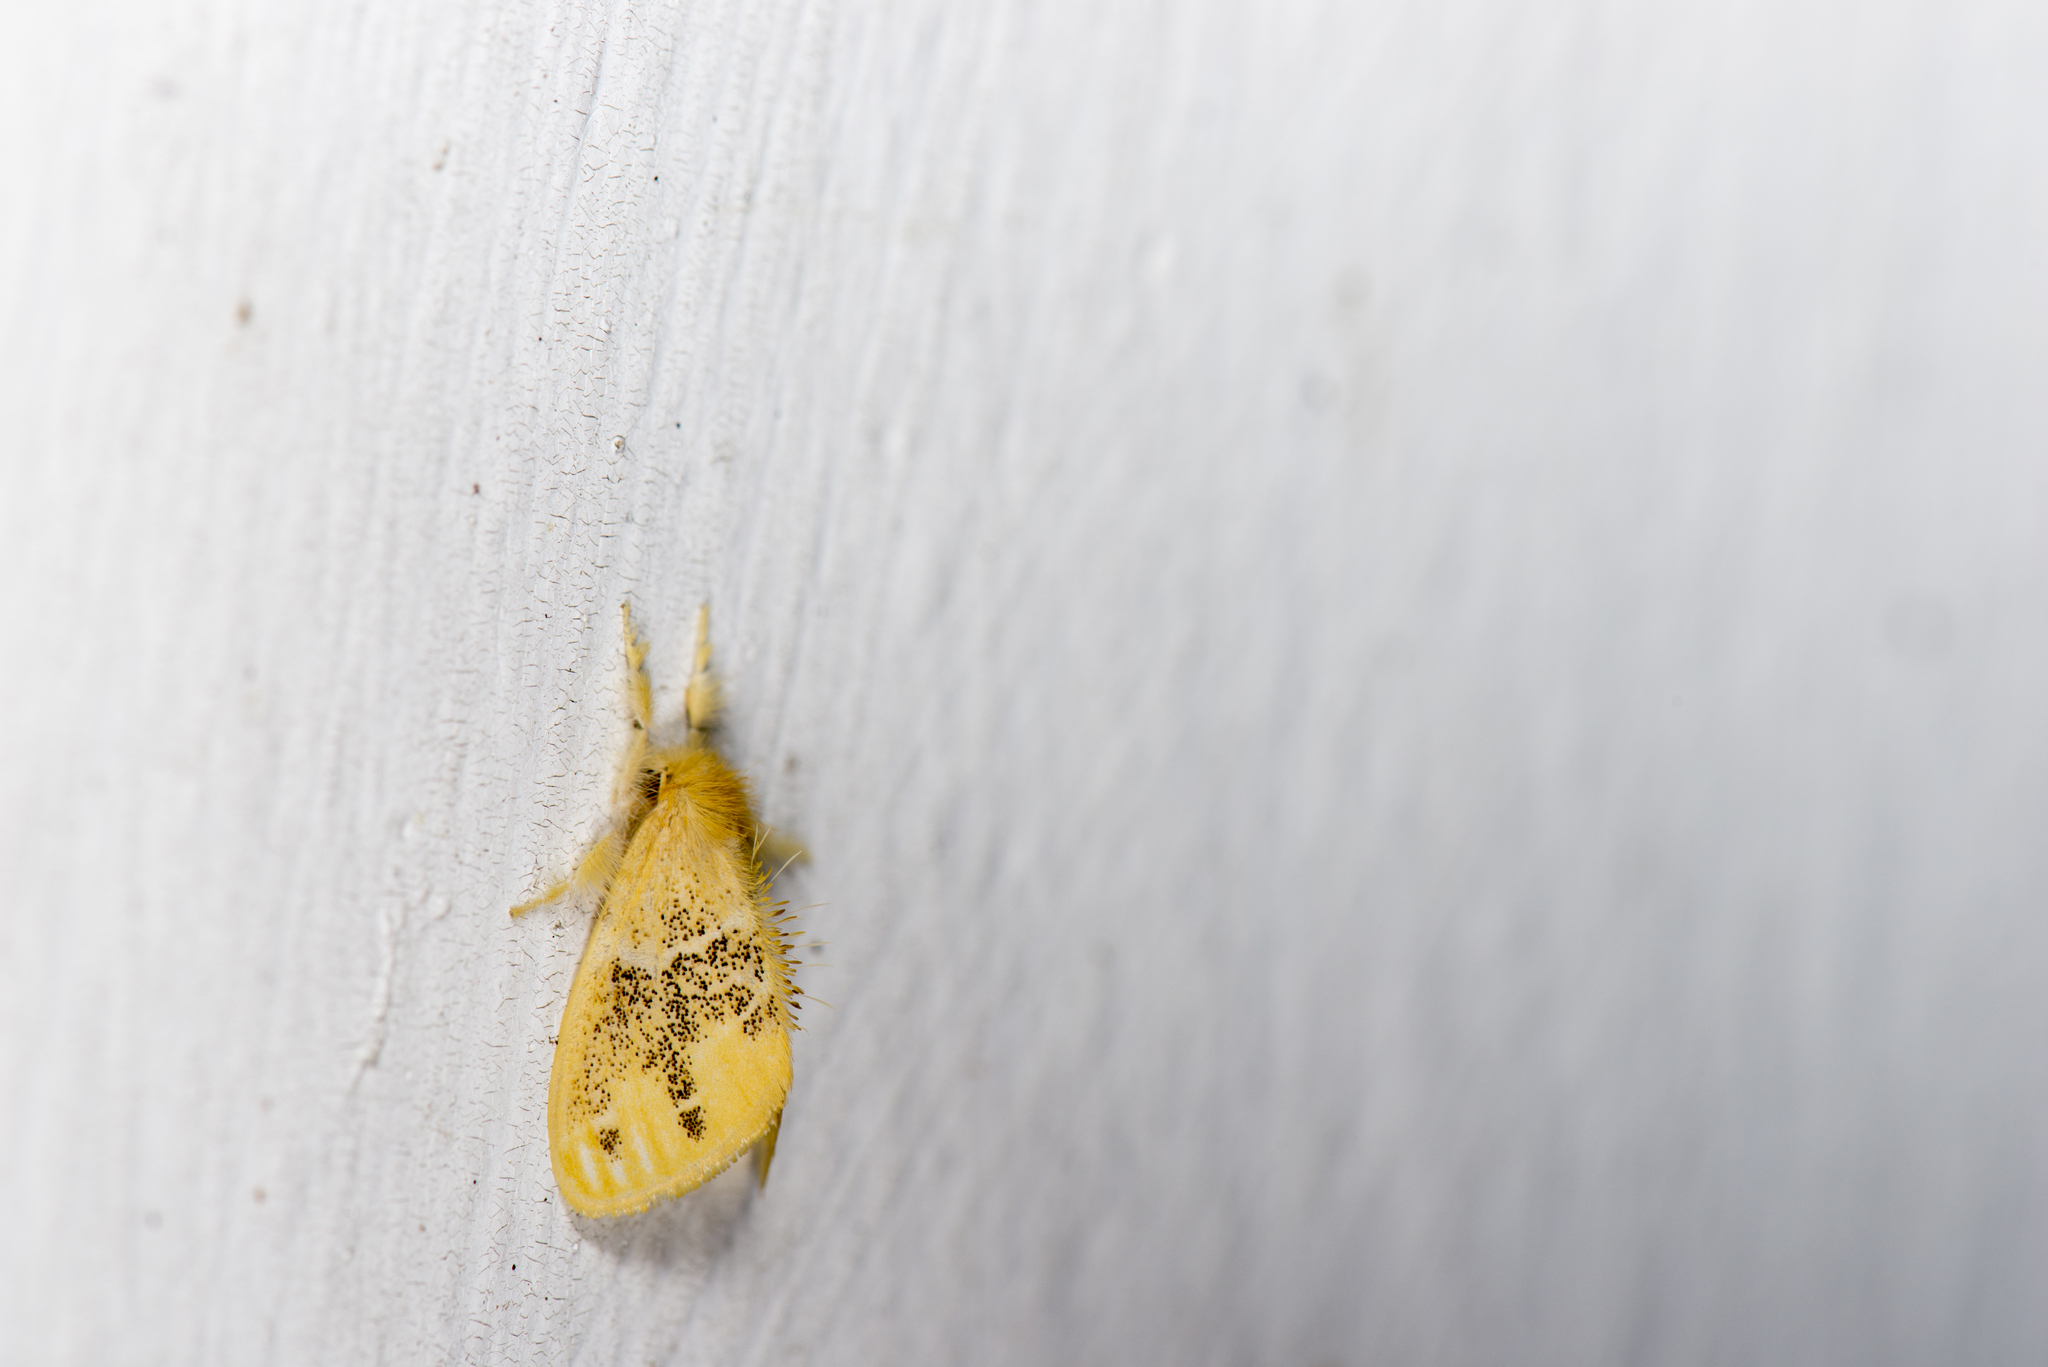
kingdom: Animalia
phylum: Arthropoda
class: Insecta
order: Lepidoptera
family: Erebidae
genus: Euproctis
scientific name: Euproctis baibarana
